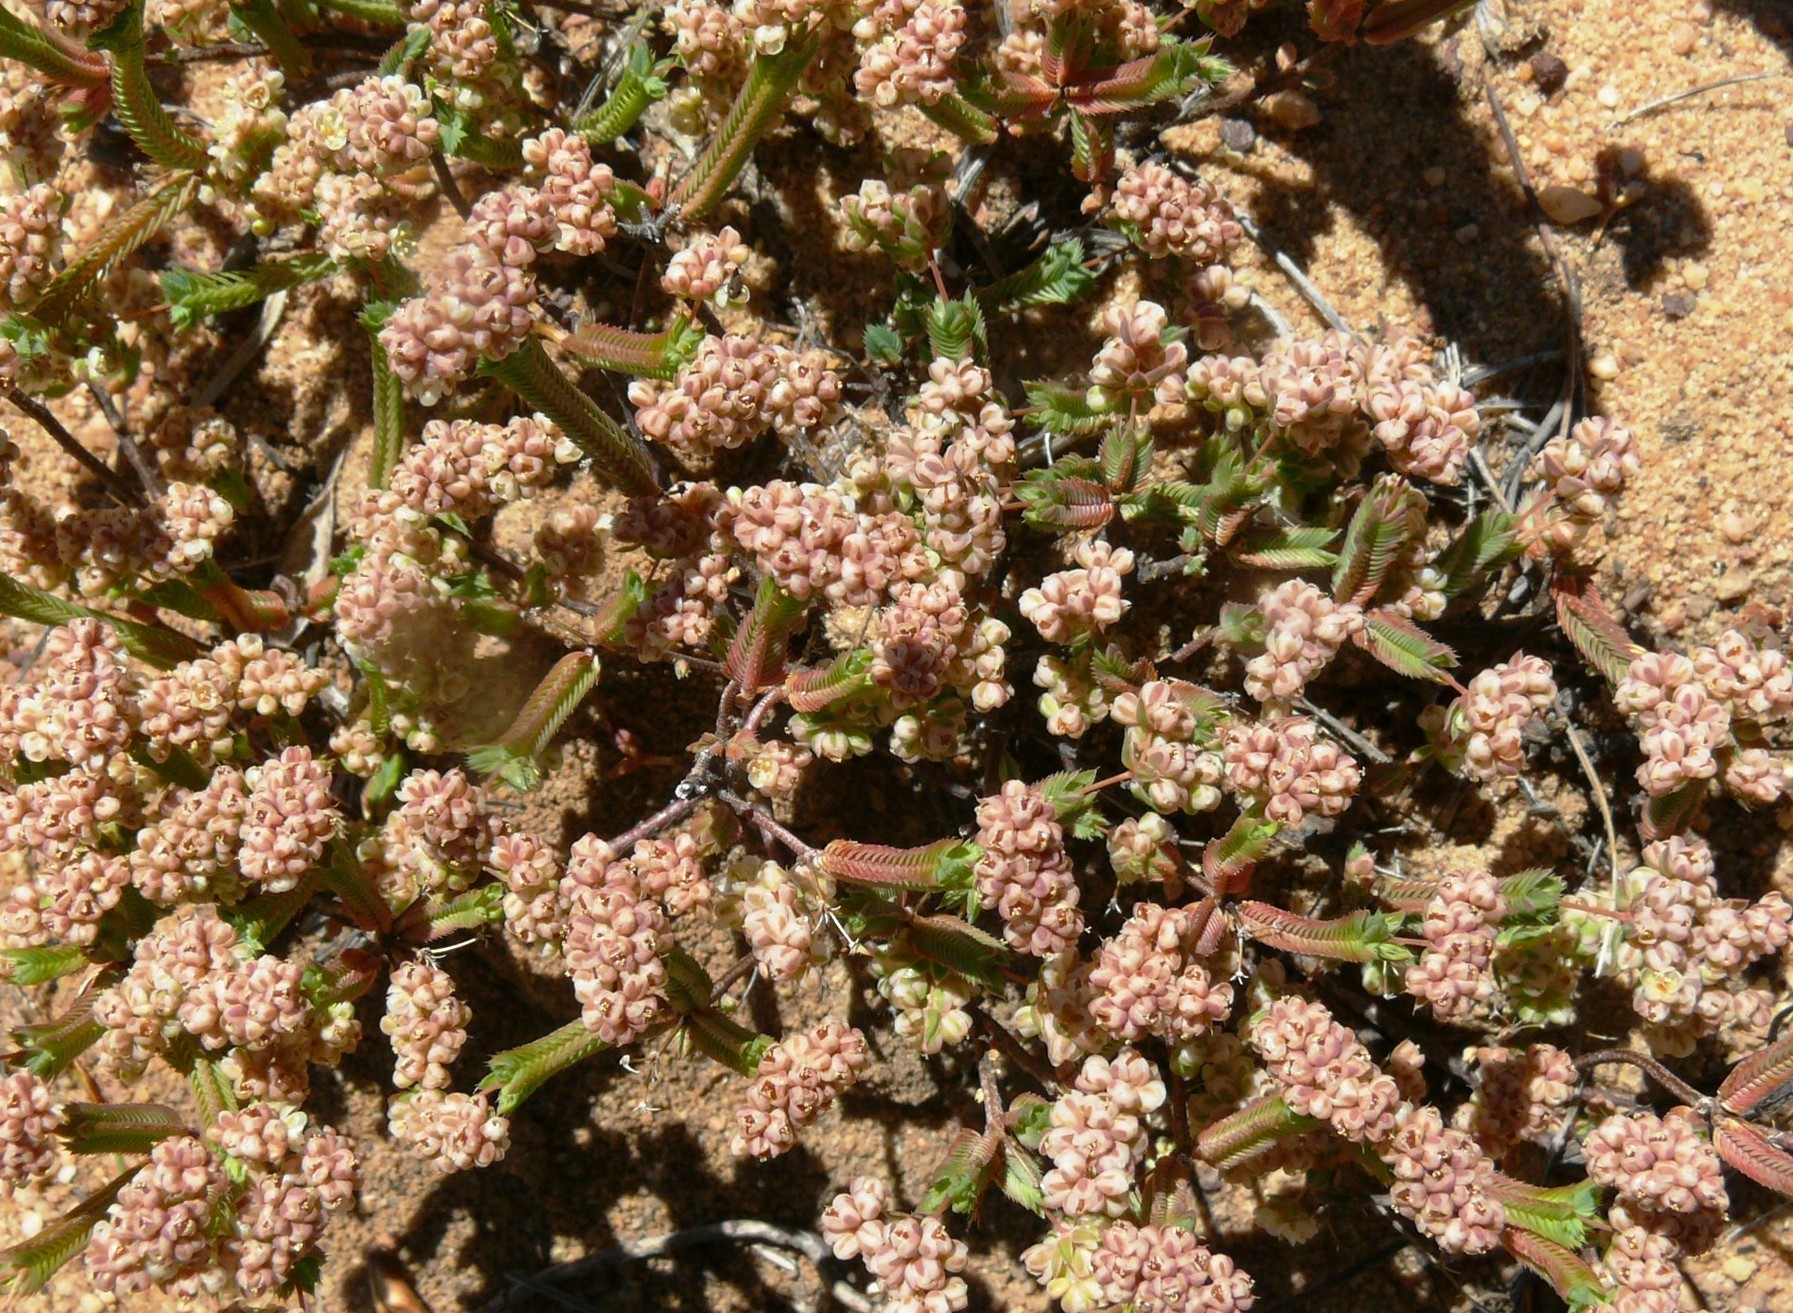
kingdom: Plantae
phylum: Tracheophyta
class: Magnoliopsida
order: Caryophyllales
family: Molluginaceae
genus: Psammotropha
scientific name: Psammotropha quadrangularis
